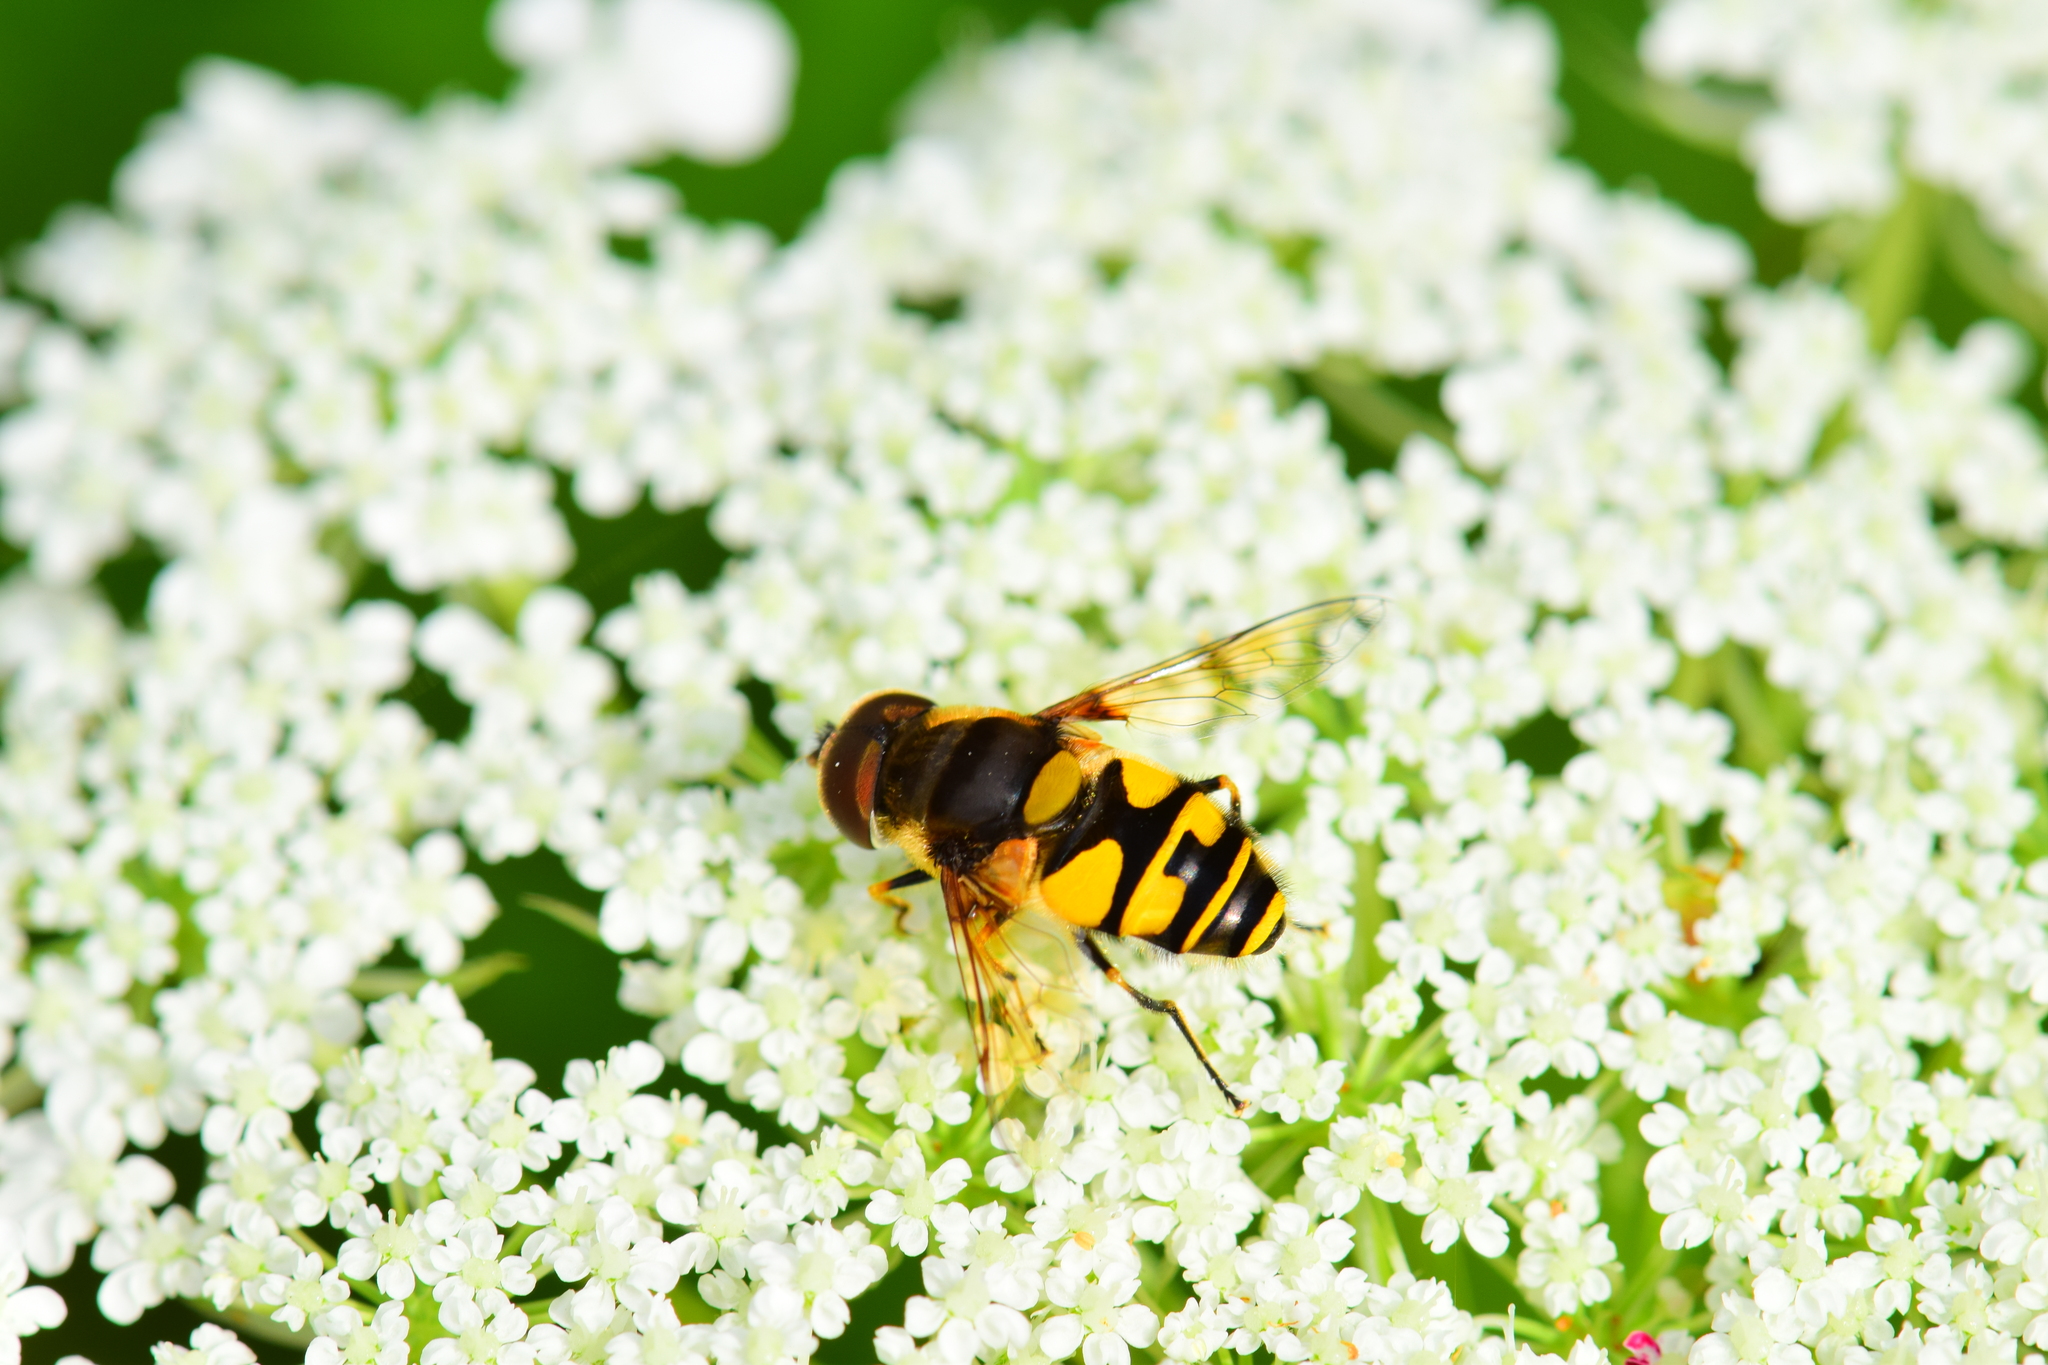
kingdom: Animalia
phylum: Arthropoda
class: Insecta
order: Diptera
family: Syrphidae
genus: Eristalis
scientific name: Eristalis transversa
